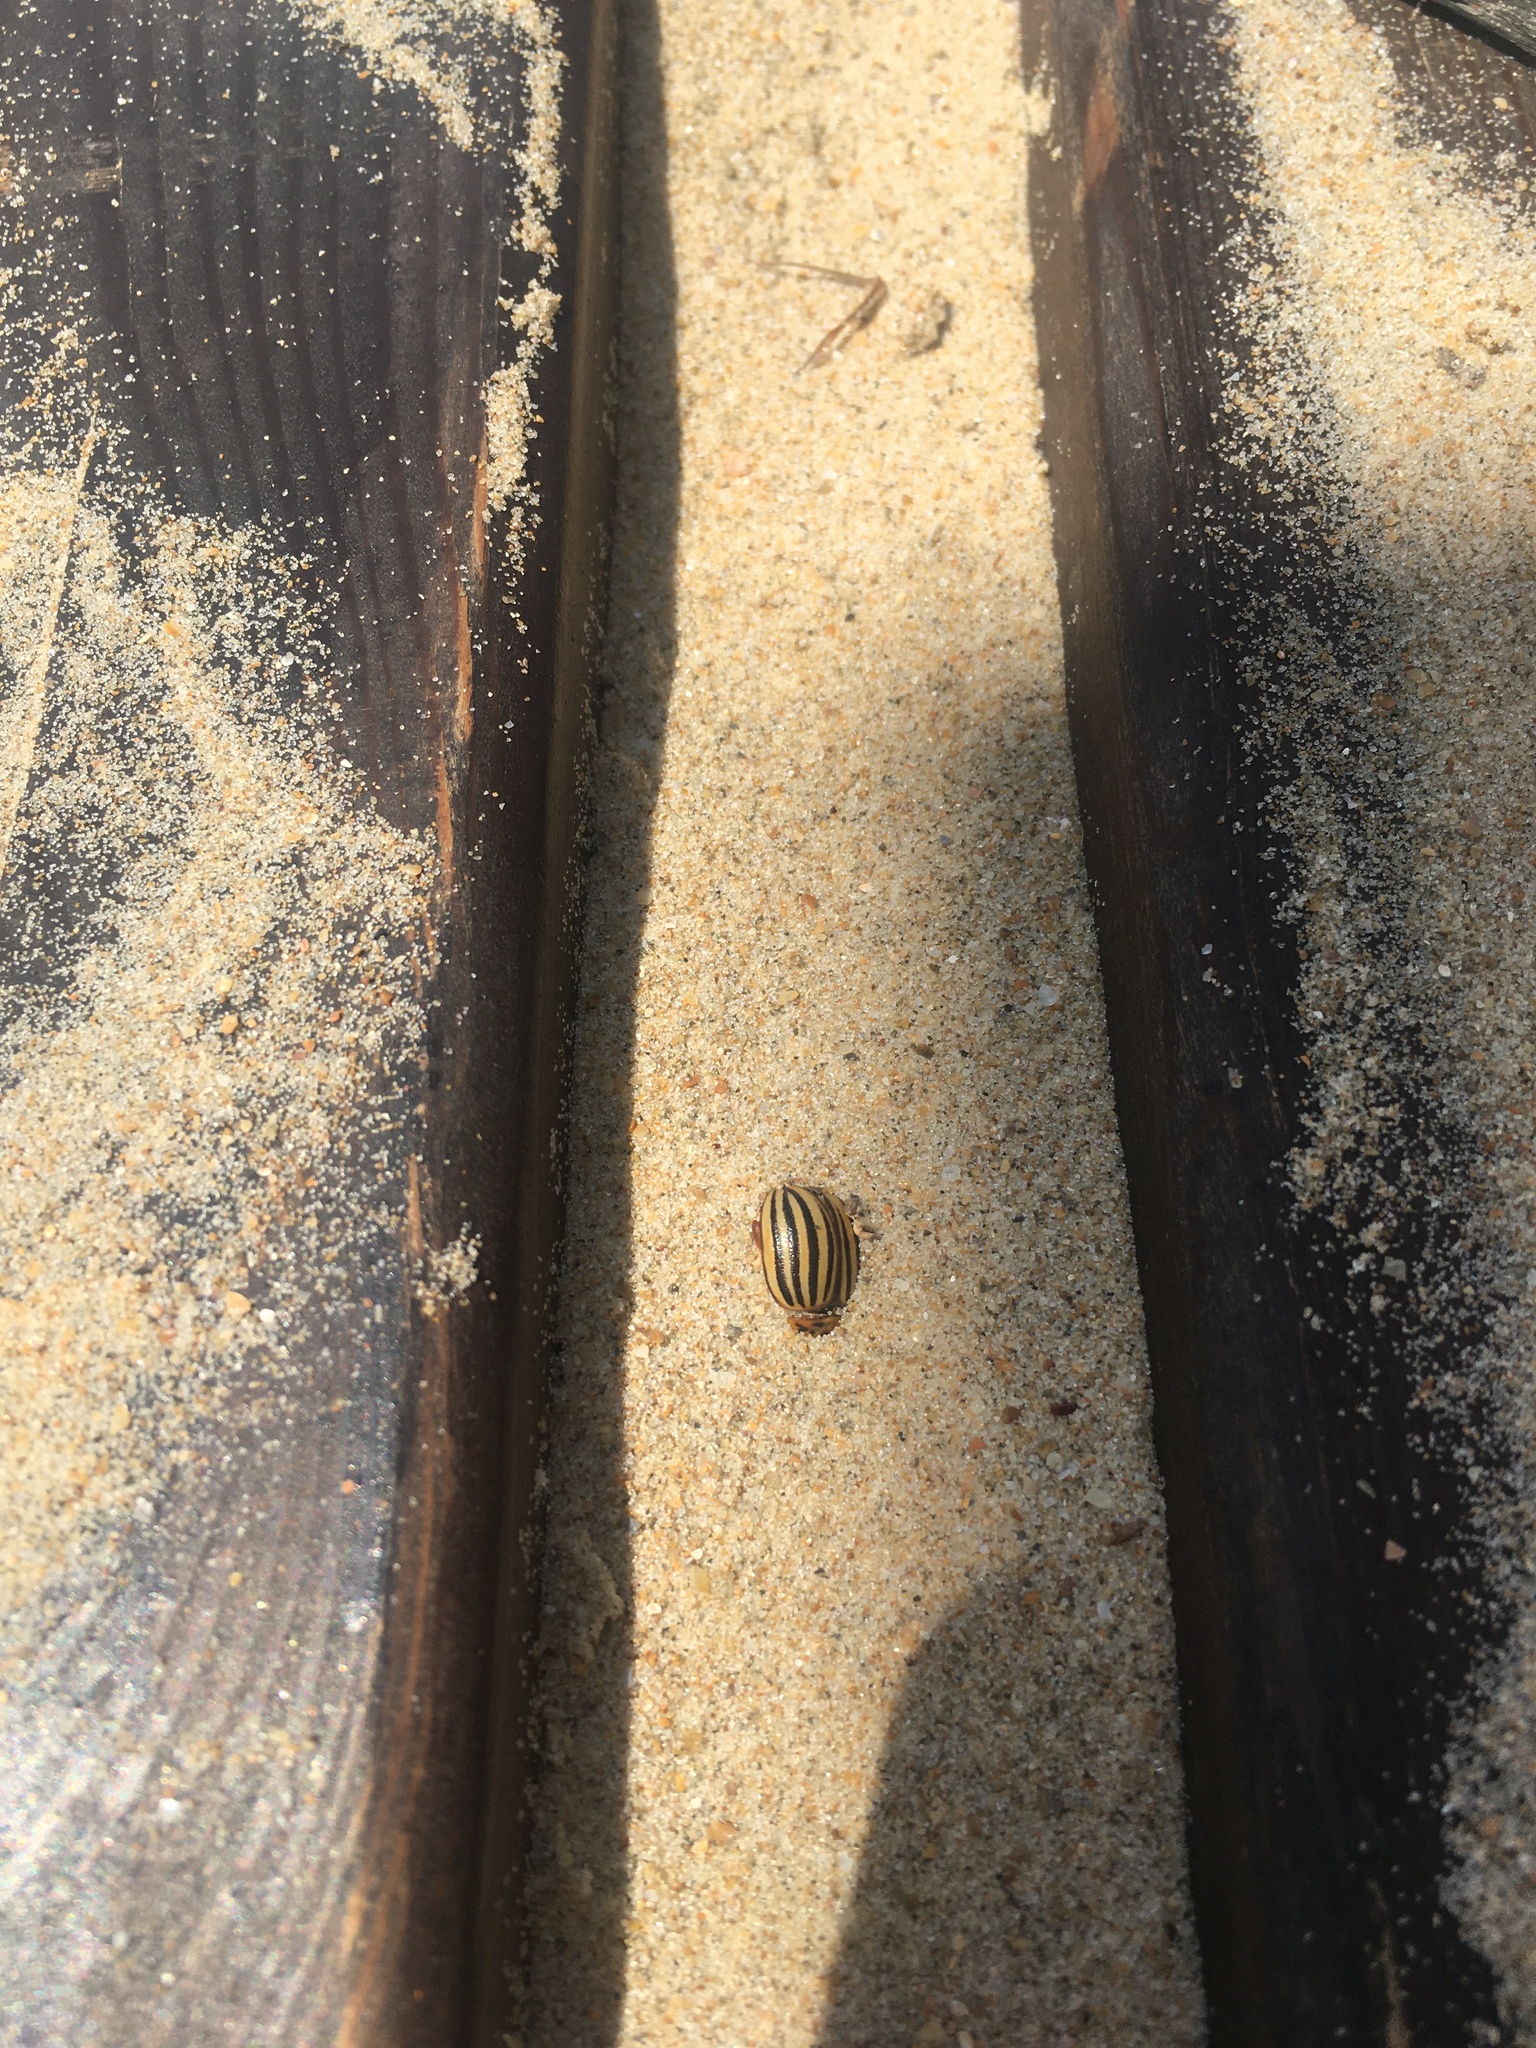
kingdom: Animalia
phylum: Arthropoda
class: Insecta
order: Coleoptera
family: Chrysomelidae
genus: Leptinotarsa
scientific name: Leptinotarsa decemlineata
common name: Colorado potato beetle
